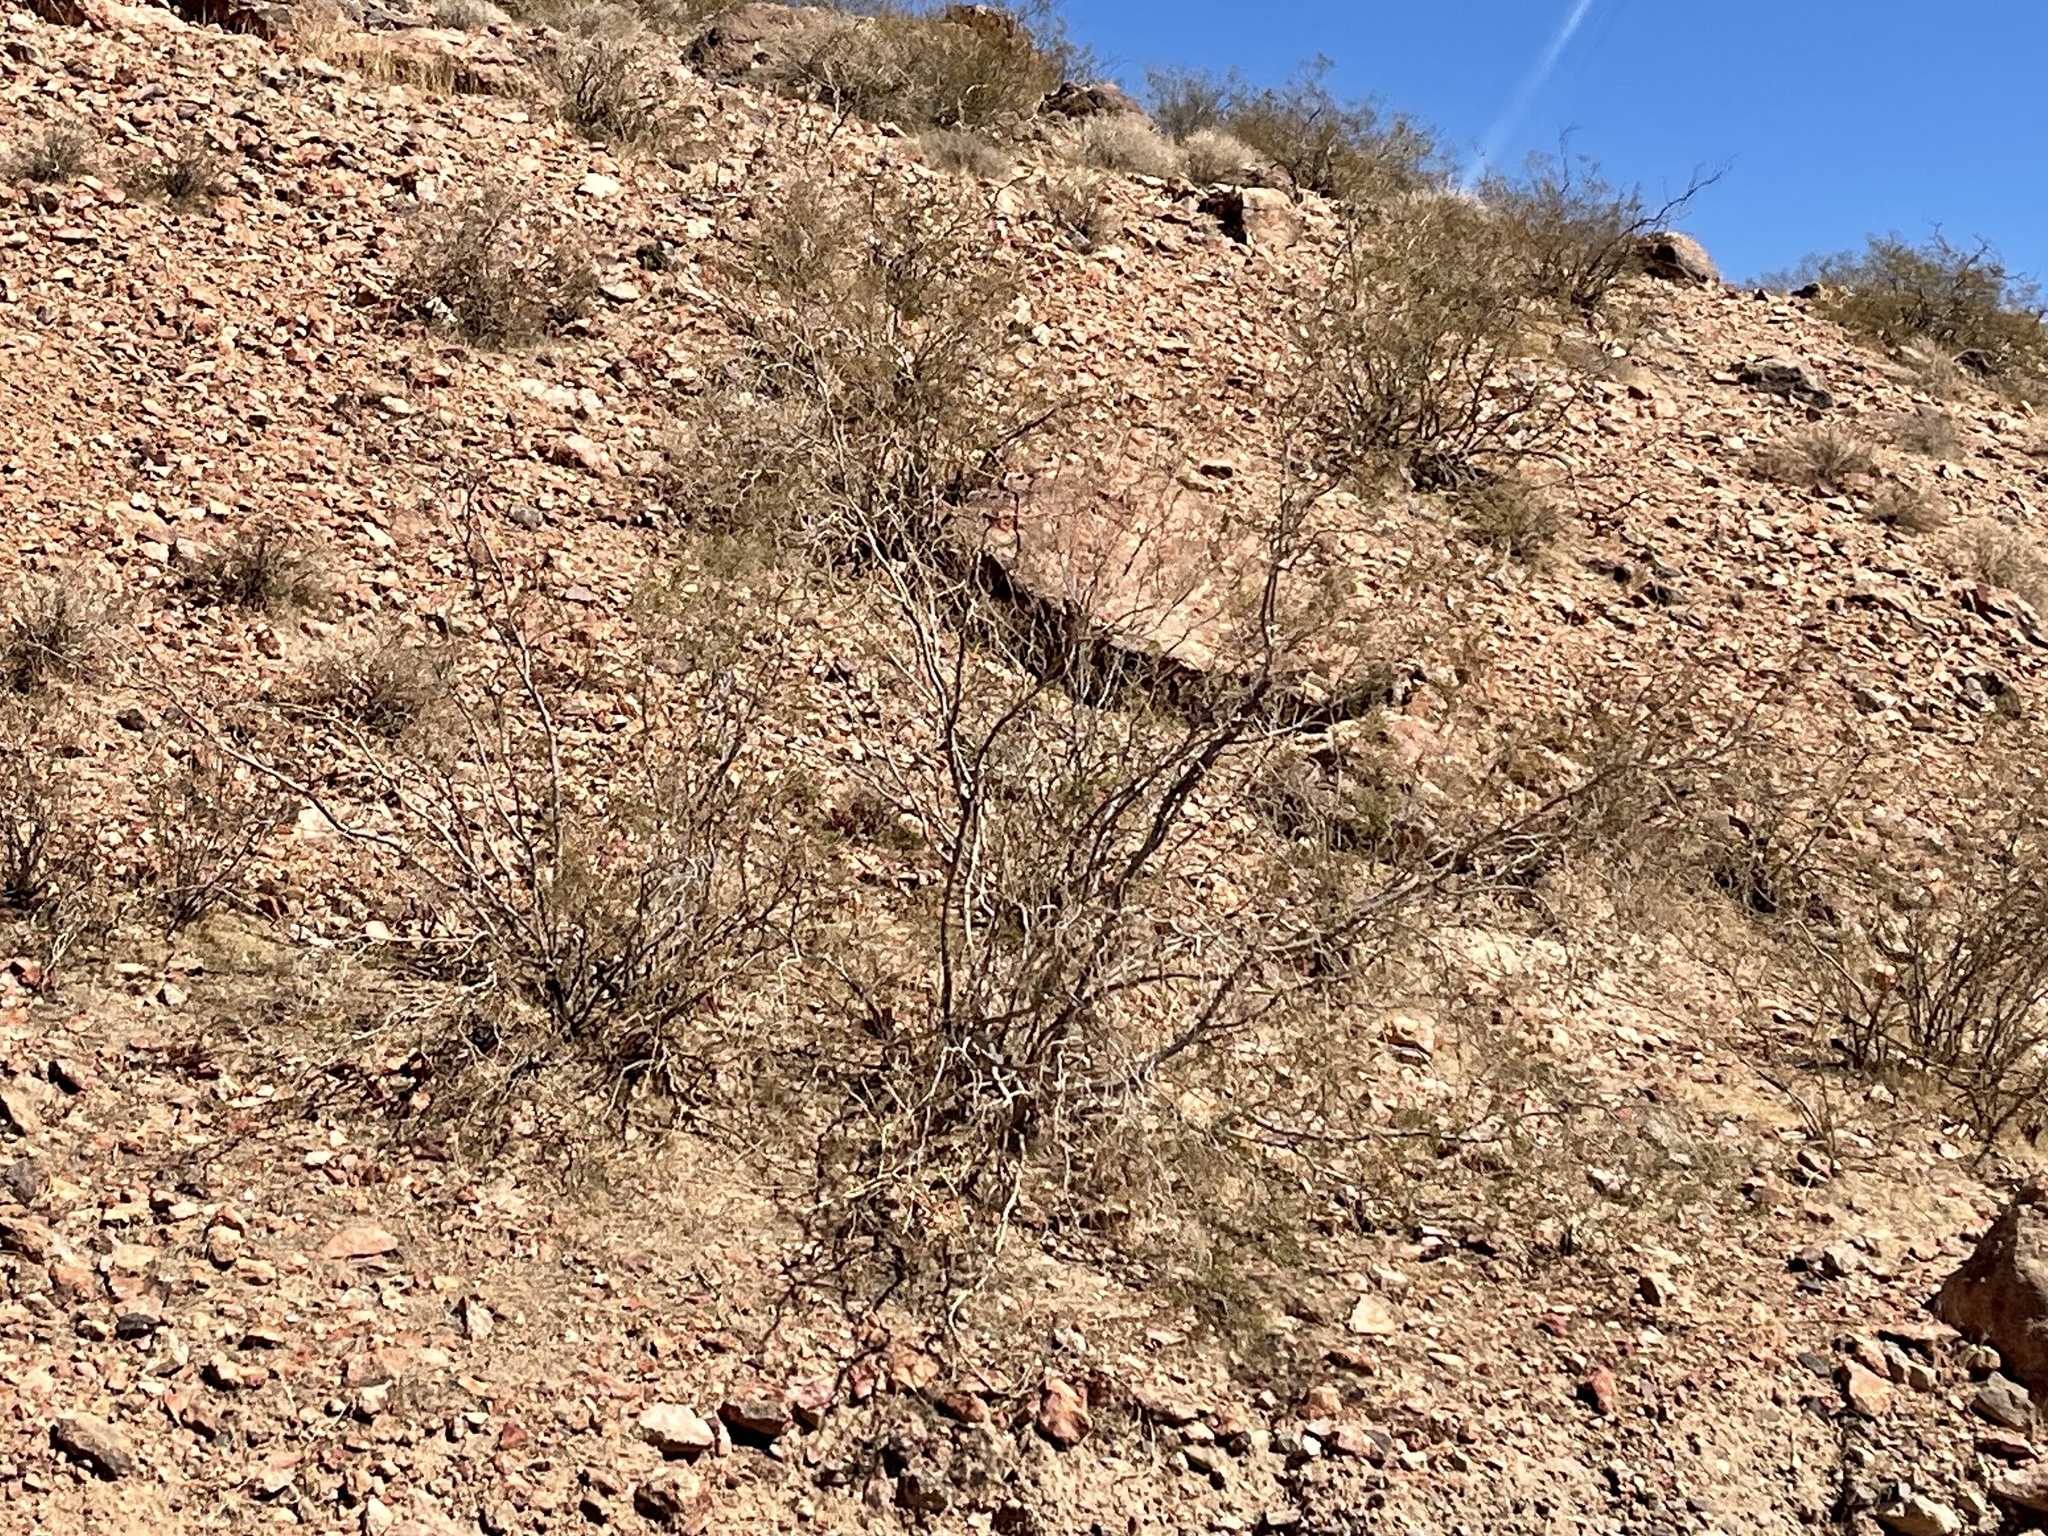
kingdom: Plantae
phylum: Tracheophyta
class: Magnoliopsida
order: Zygophyllales
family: Zygophyllaceae
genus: Larrea
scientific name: Larrea tridentata
